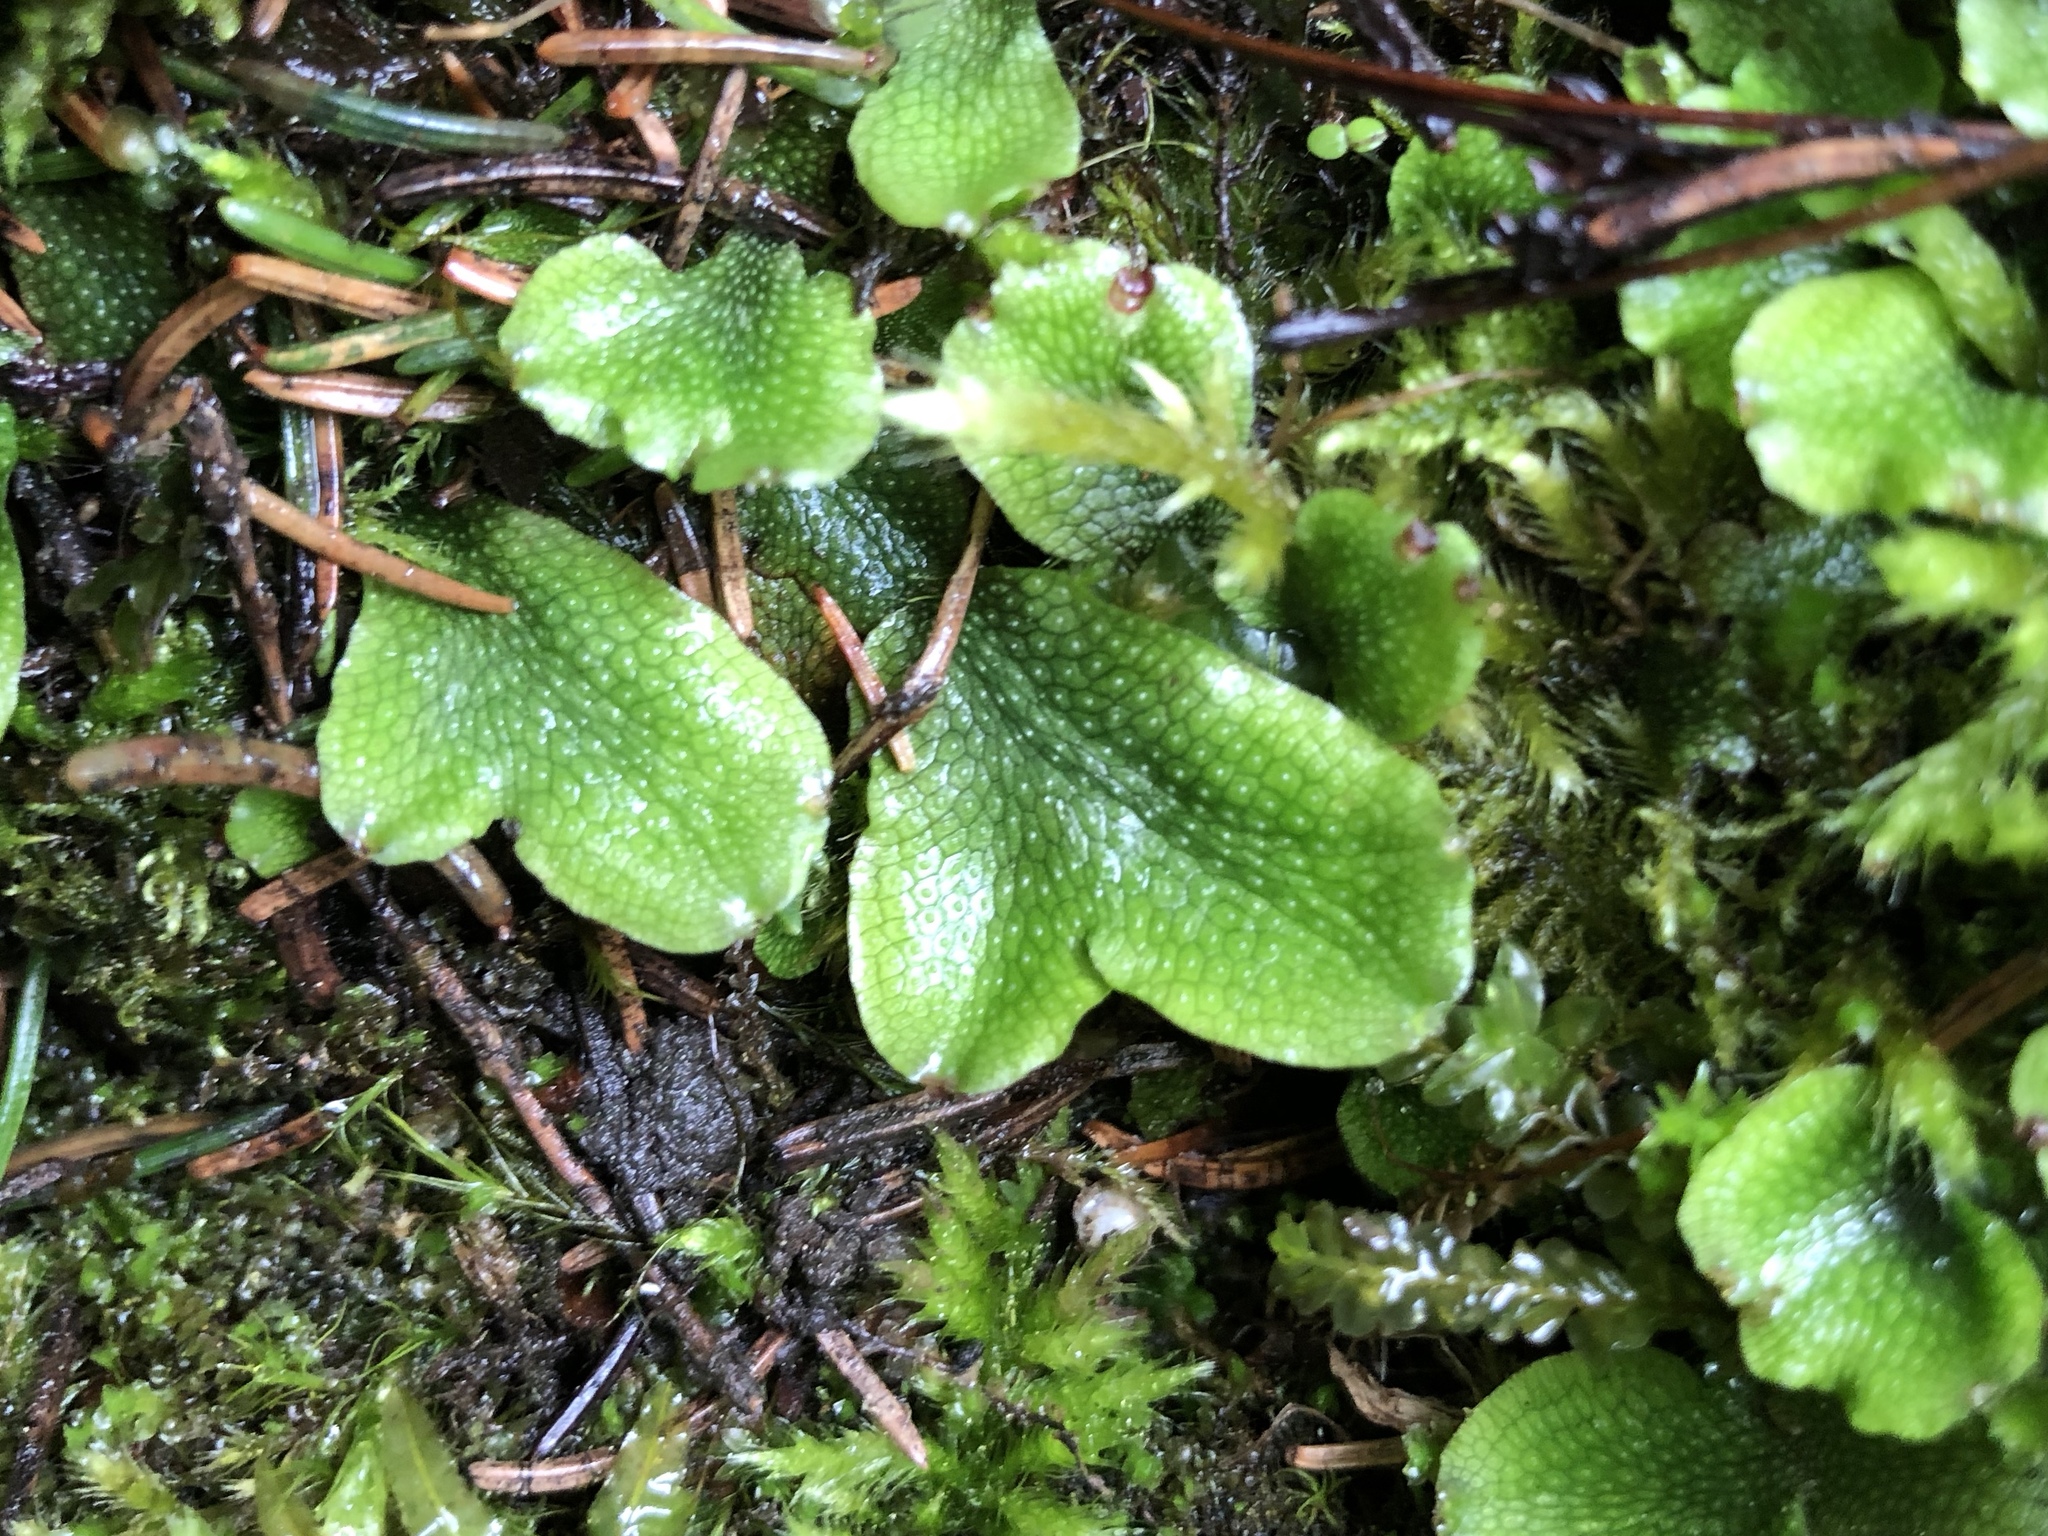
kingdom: Plantae
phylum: Marchantiophyta
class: Marchantiopsida
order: Marchantiales
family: Conocephalaceae
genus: Conocephalum
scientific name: Conocephalum salebrosum
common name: Cat-tongue liverwort
